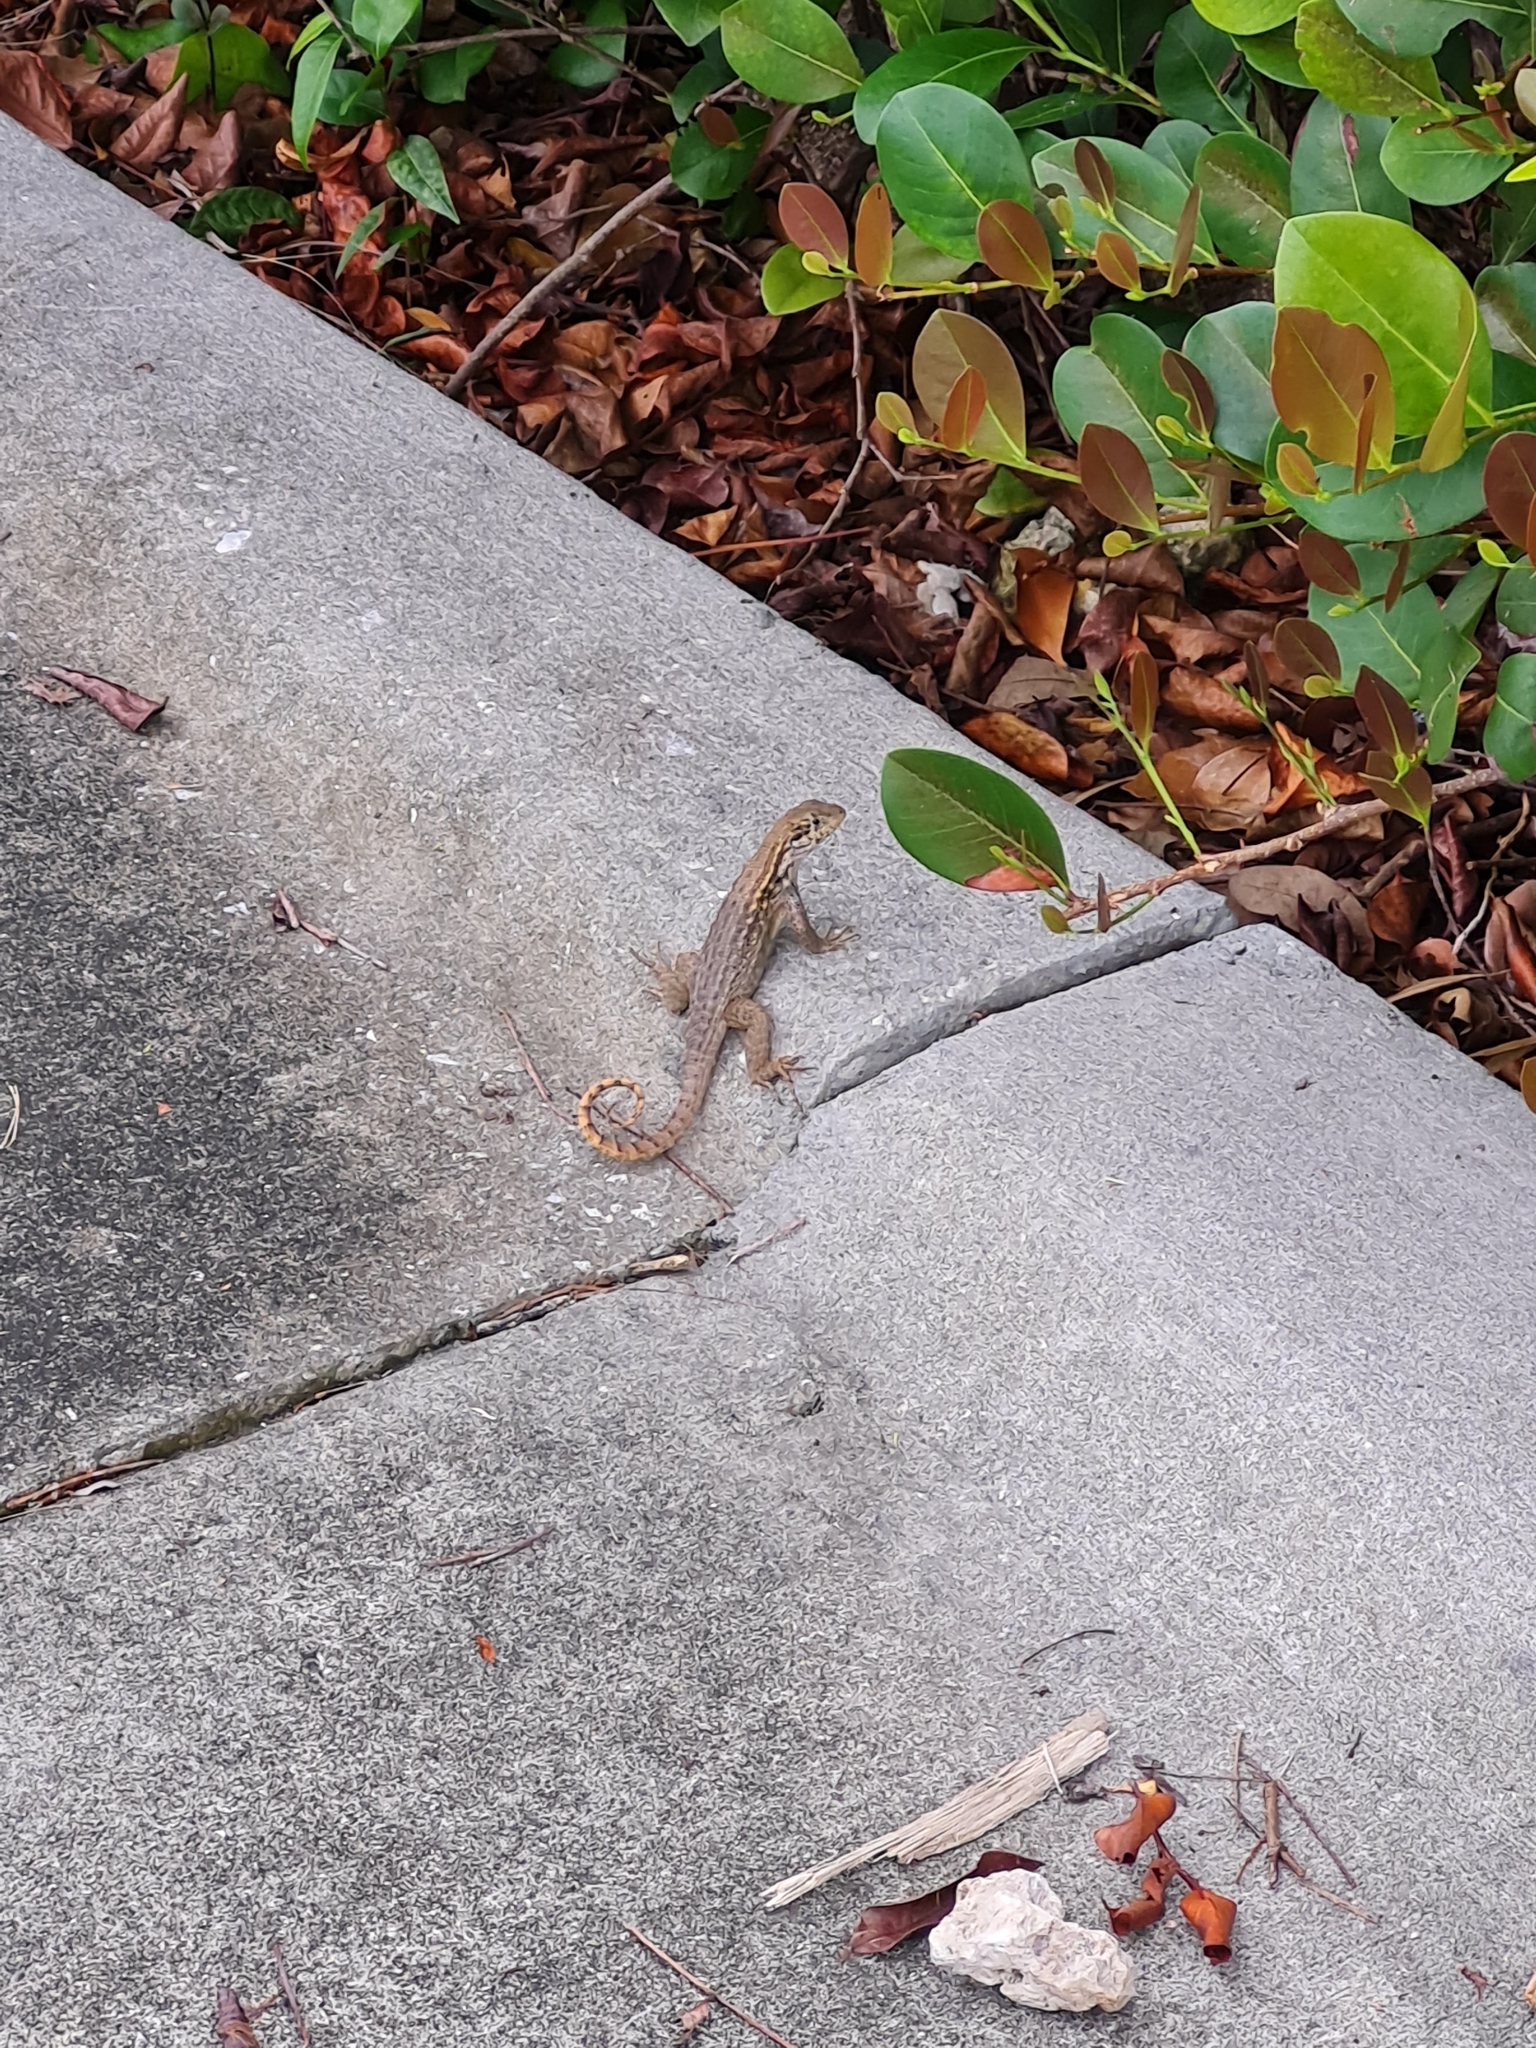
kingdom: Animalia
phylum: Chordata
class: Squamata
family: Leiocephalidae
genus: Leiocephalus
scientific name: Leiocephalus carinatus
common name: Northern curly-tailed lizard
